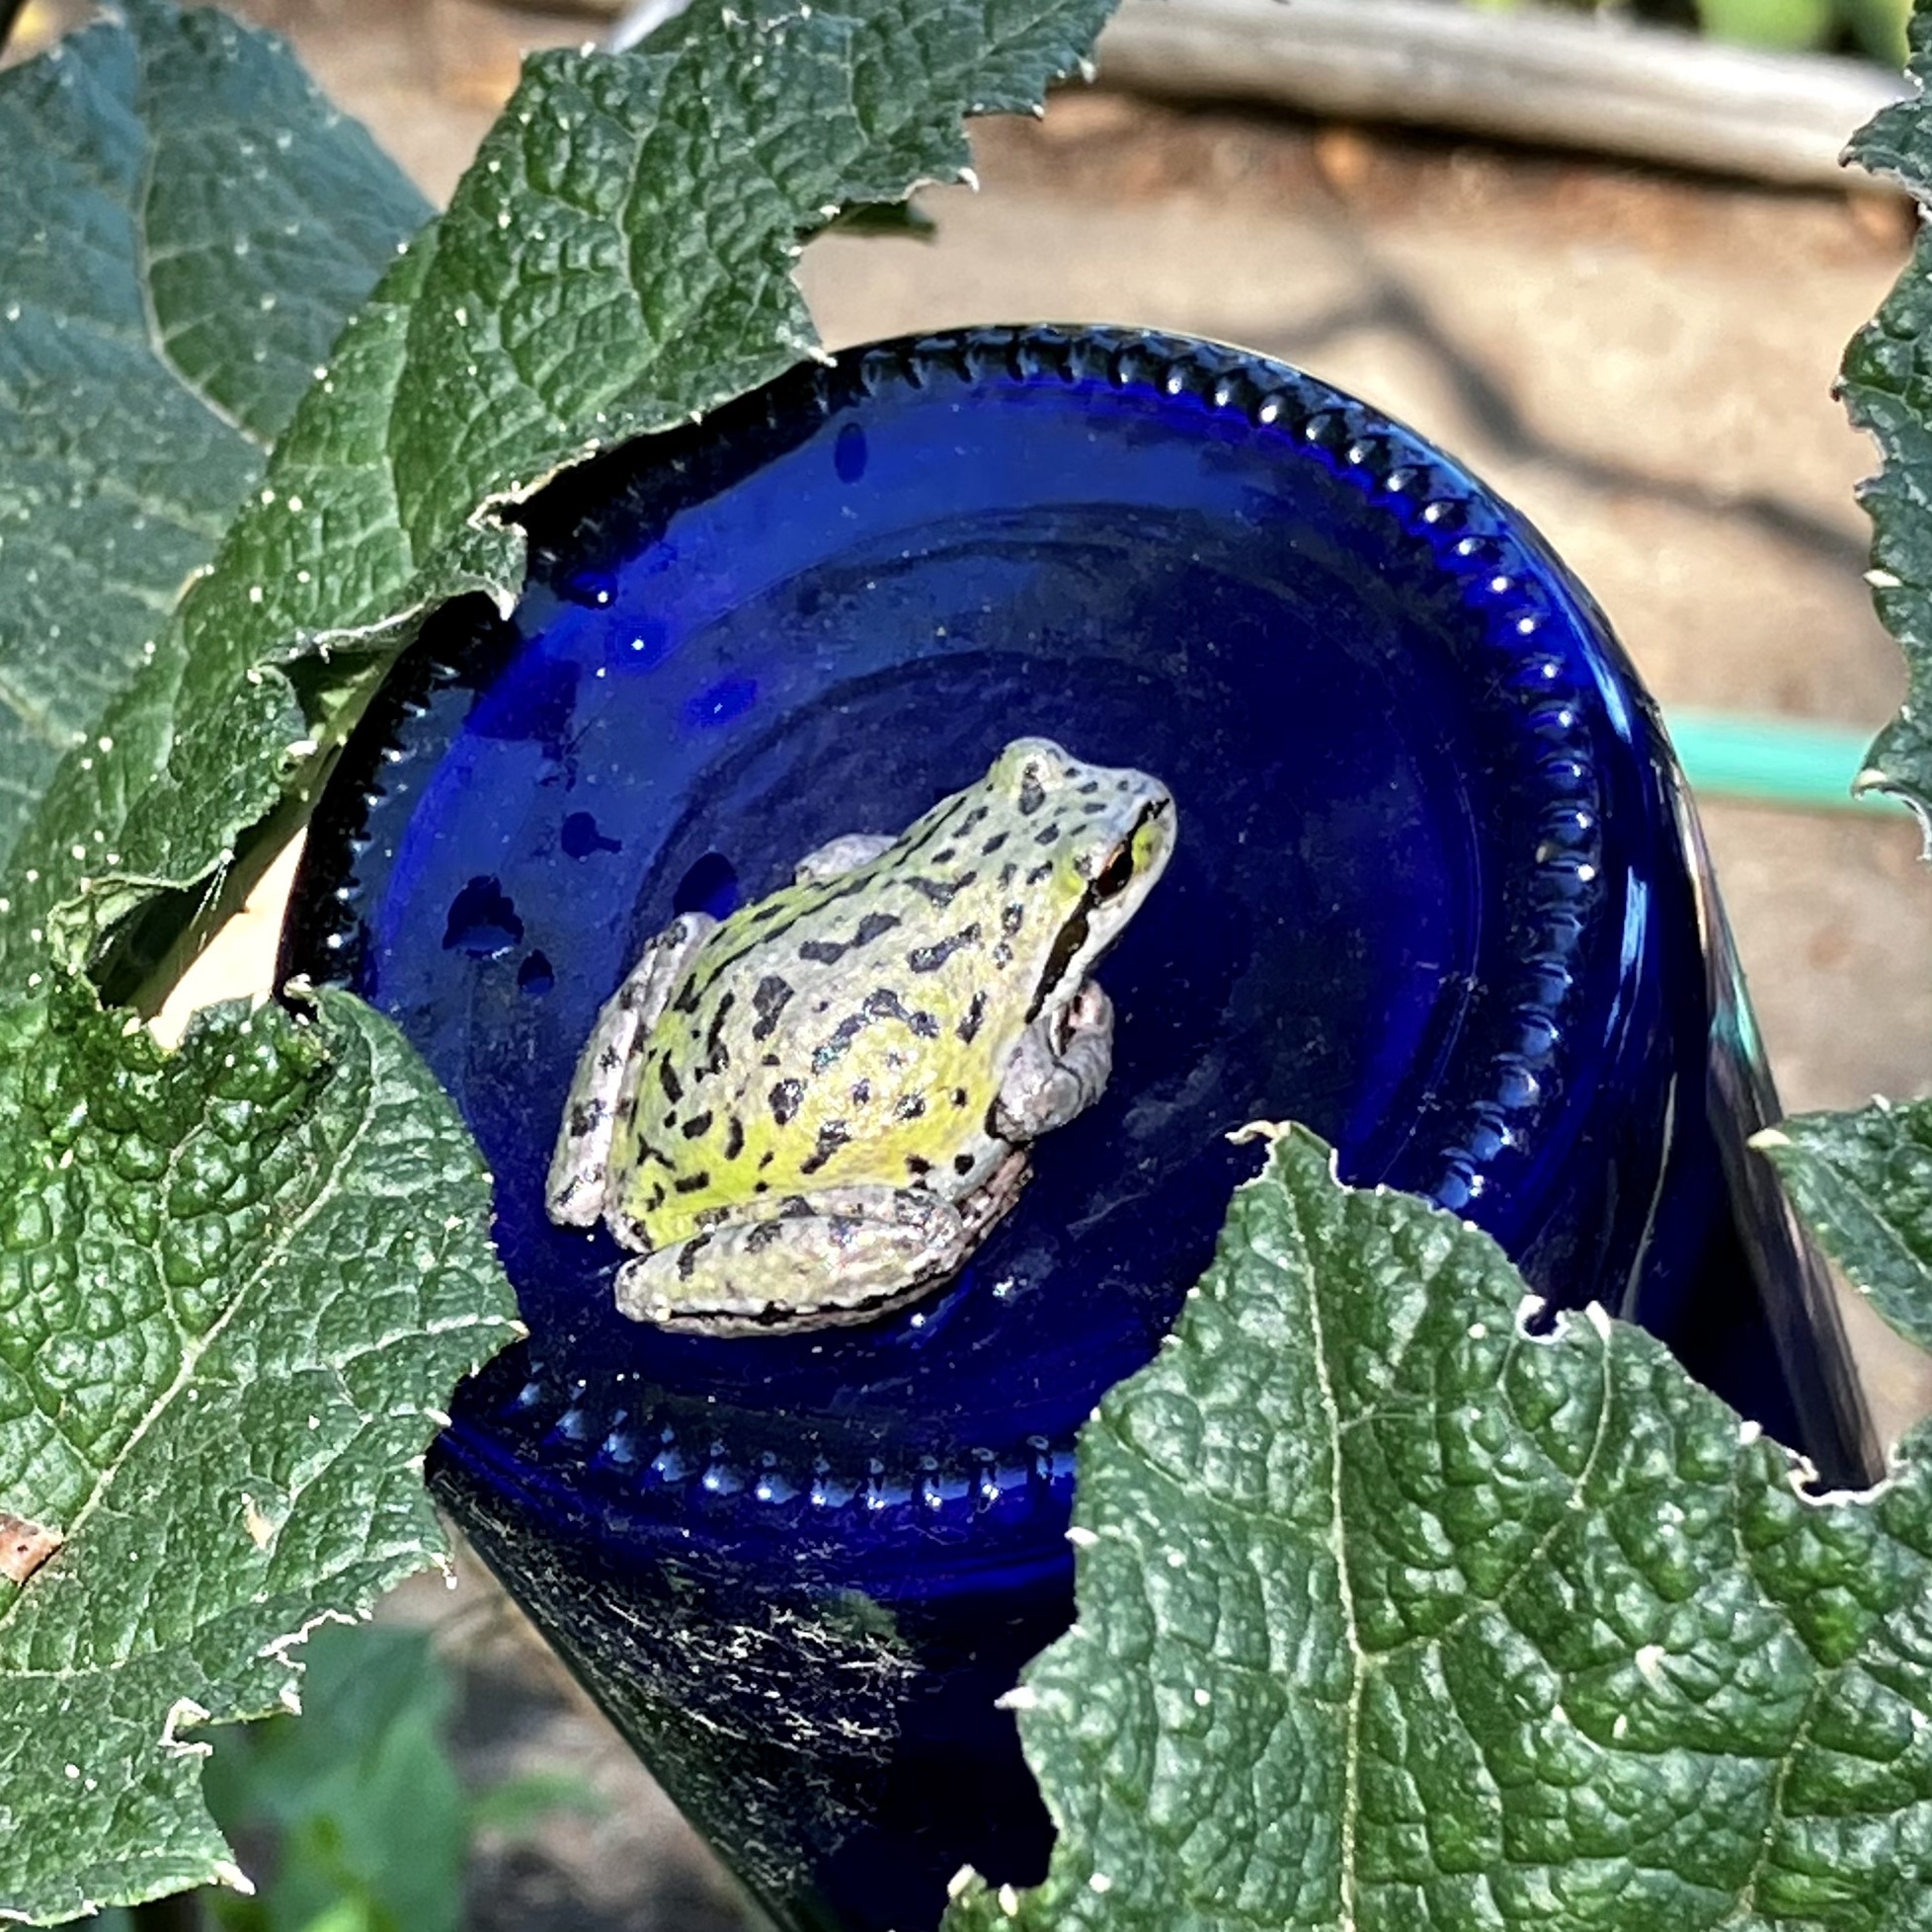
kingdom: Animalia
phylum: Chordata
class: Amphibia
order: Anura
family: Hylidae
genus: Pseudacris
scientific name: Pseudacris regilla
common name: Pacific chorus frog
